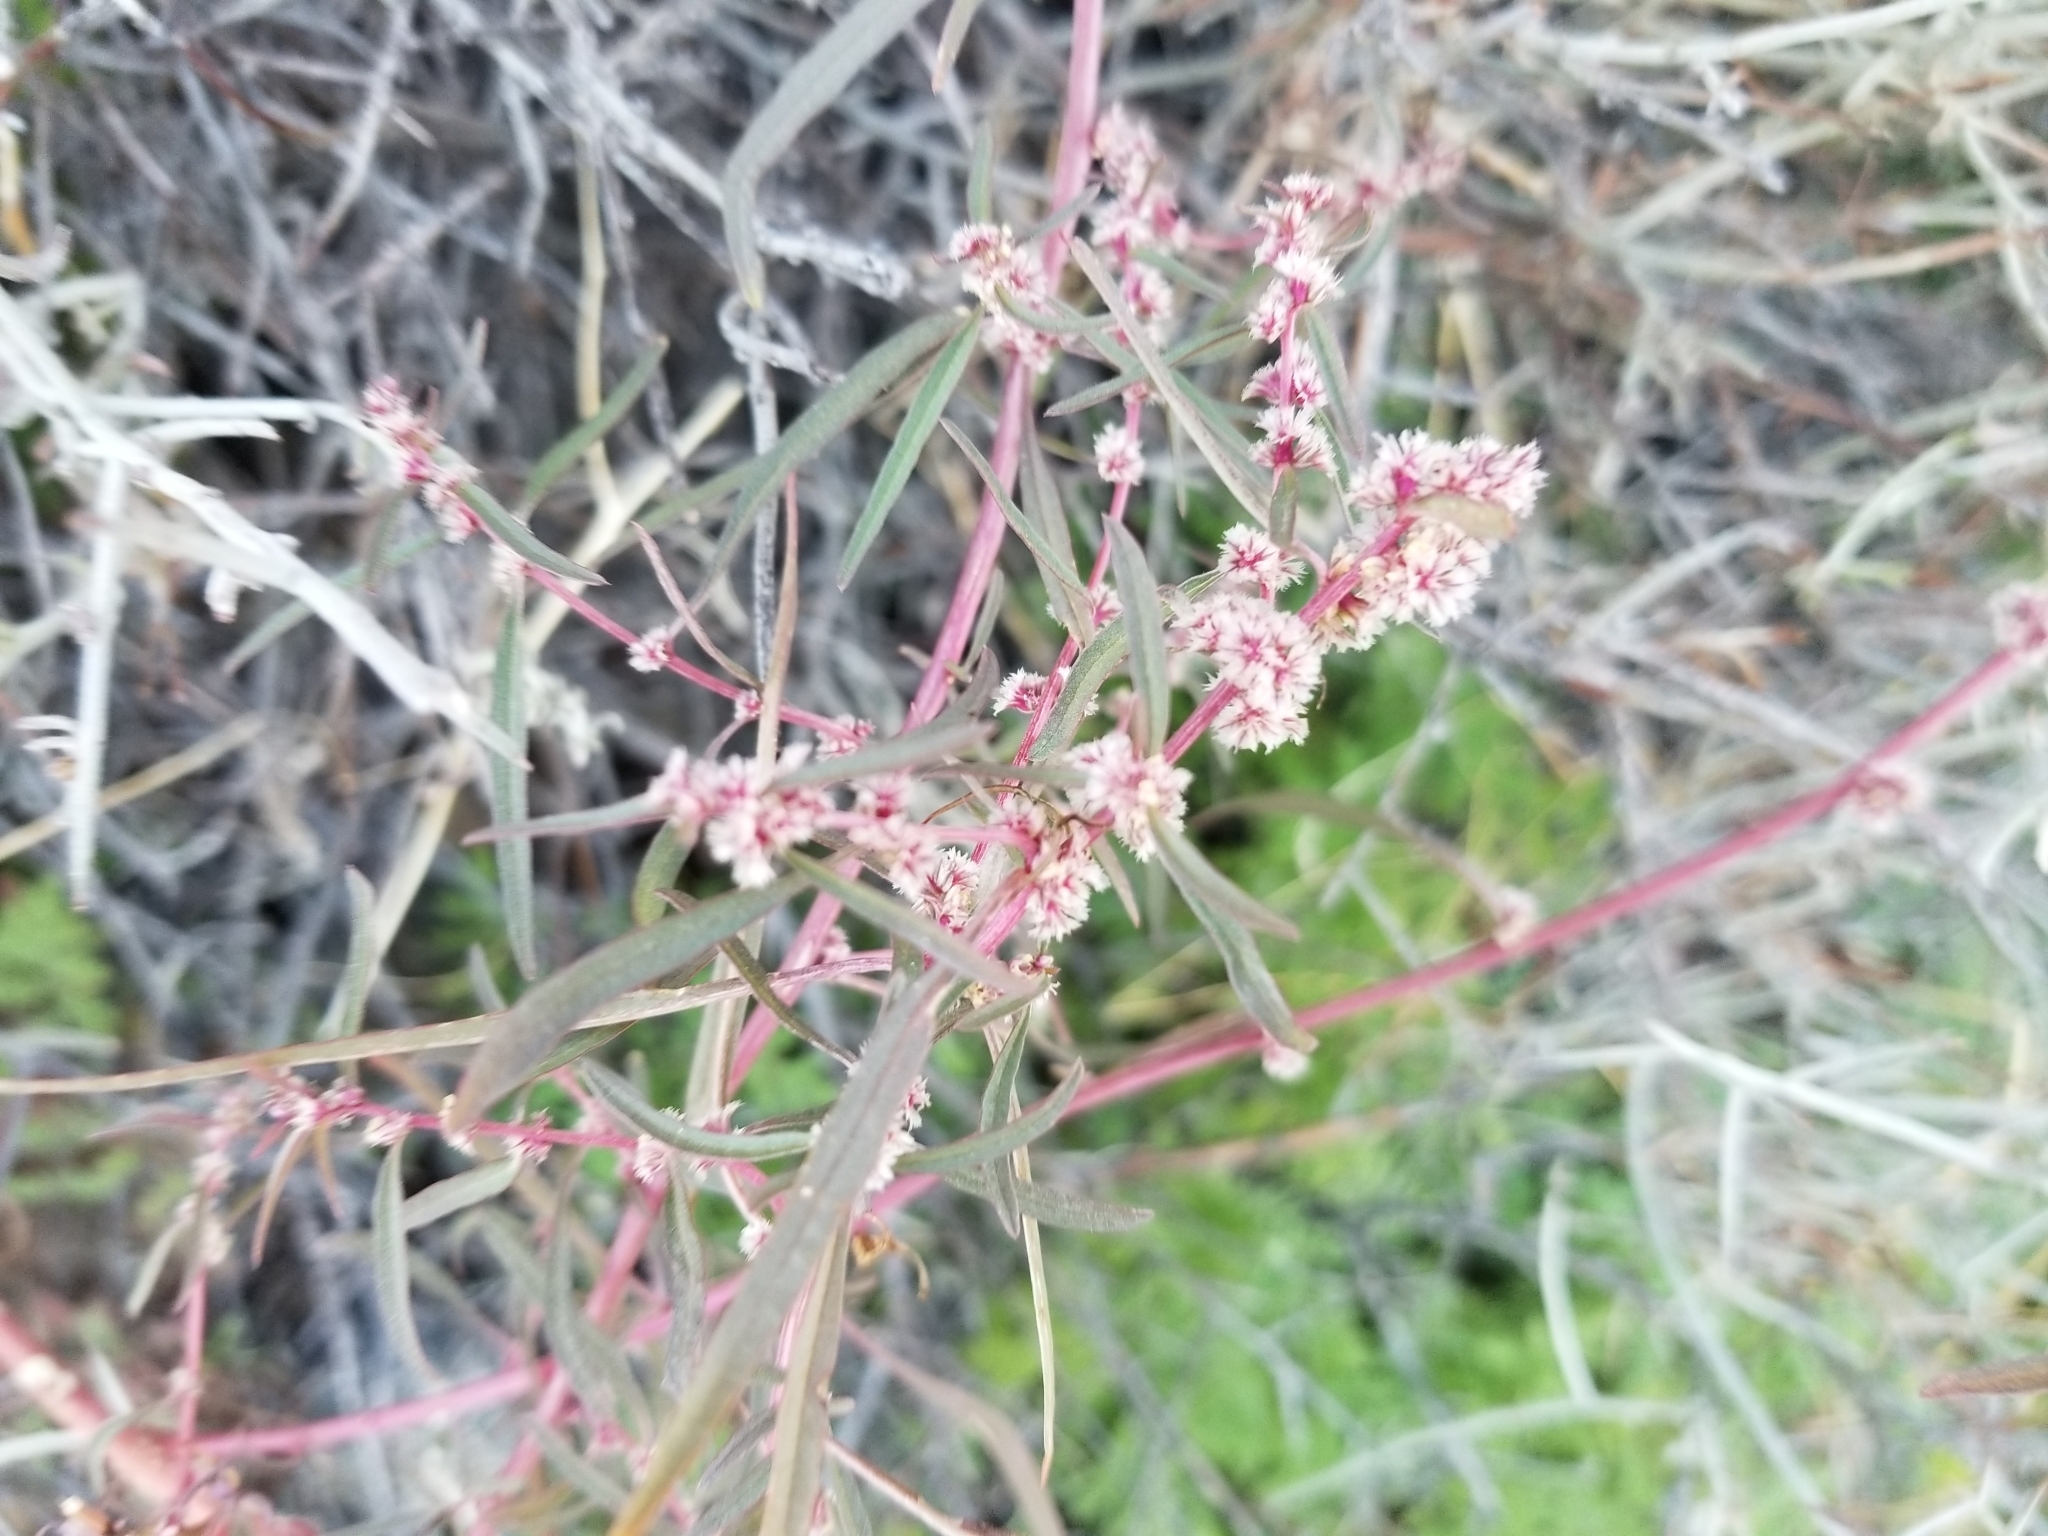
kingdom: Plantae
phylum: Tracheophyta
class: Magnoliopsida
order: Caryophyllales
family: Amaranthaceae
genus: Amaranthus
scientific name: Amaranthus fimbriatus
